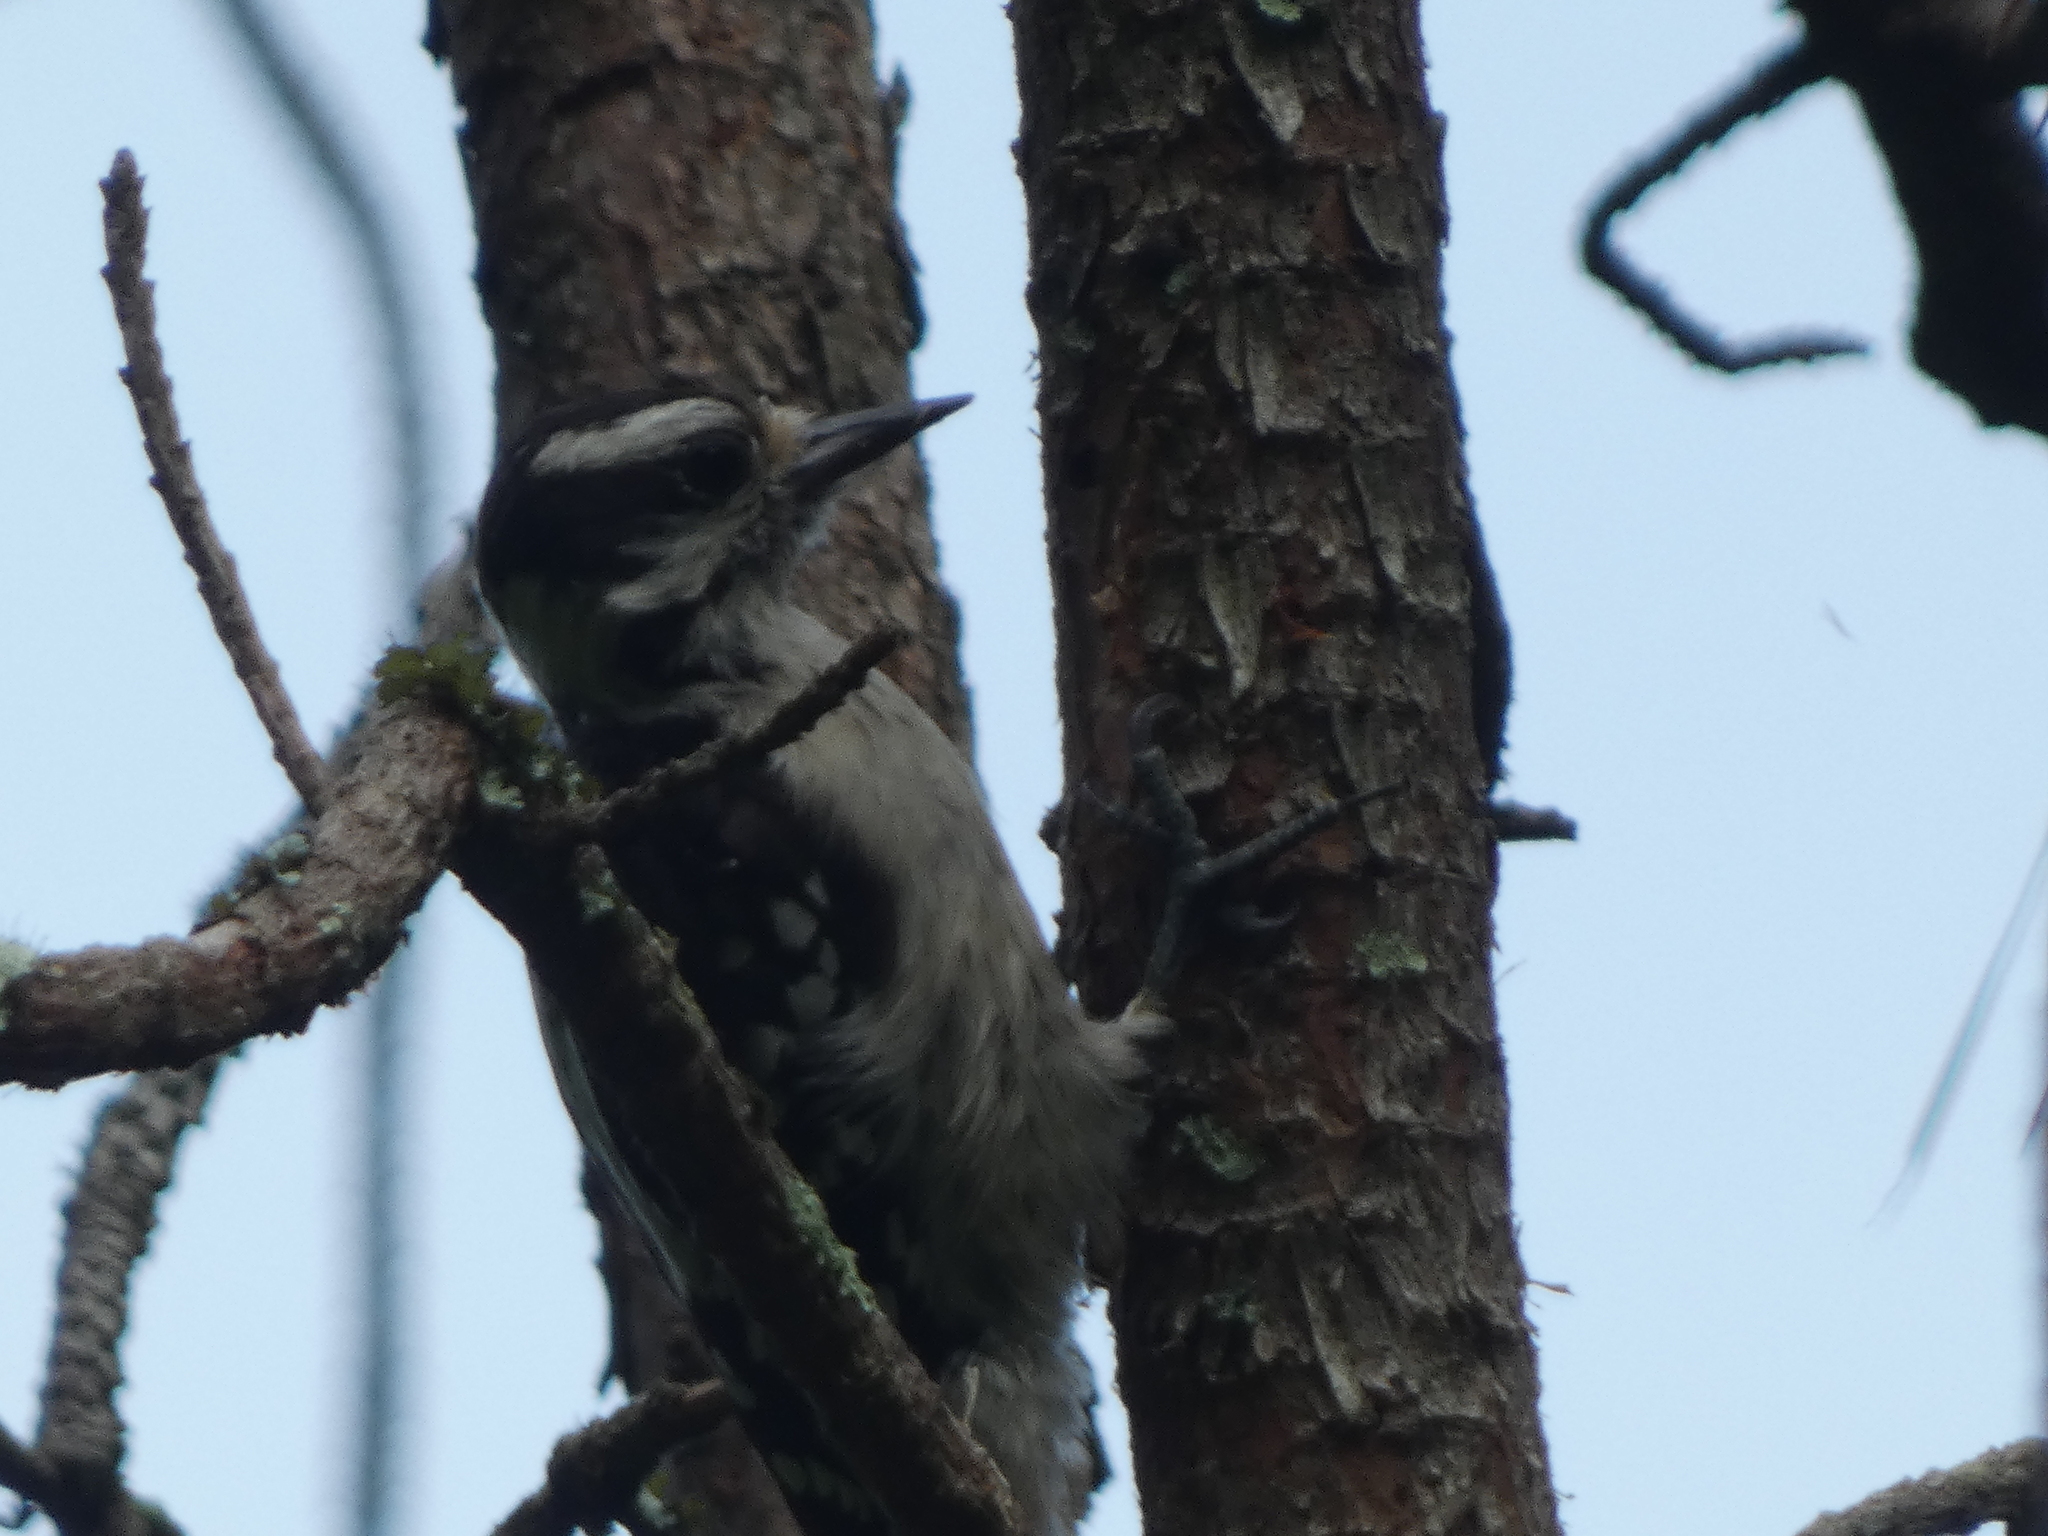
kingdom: Animalia
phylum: Chordata
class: Aves
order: Piciformes
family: Picidae
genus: Leuconotopicus
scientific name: Leuconotopicus villosus
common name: Hairy woodpecker
